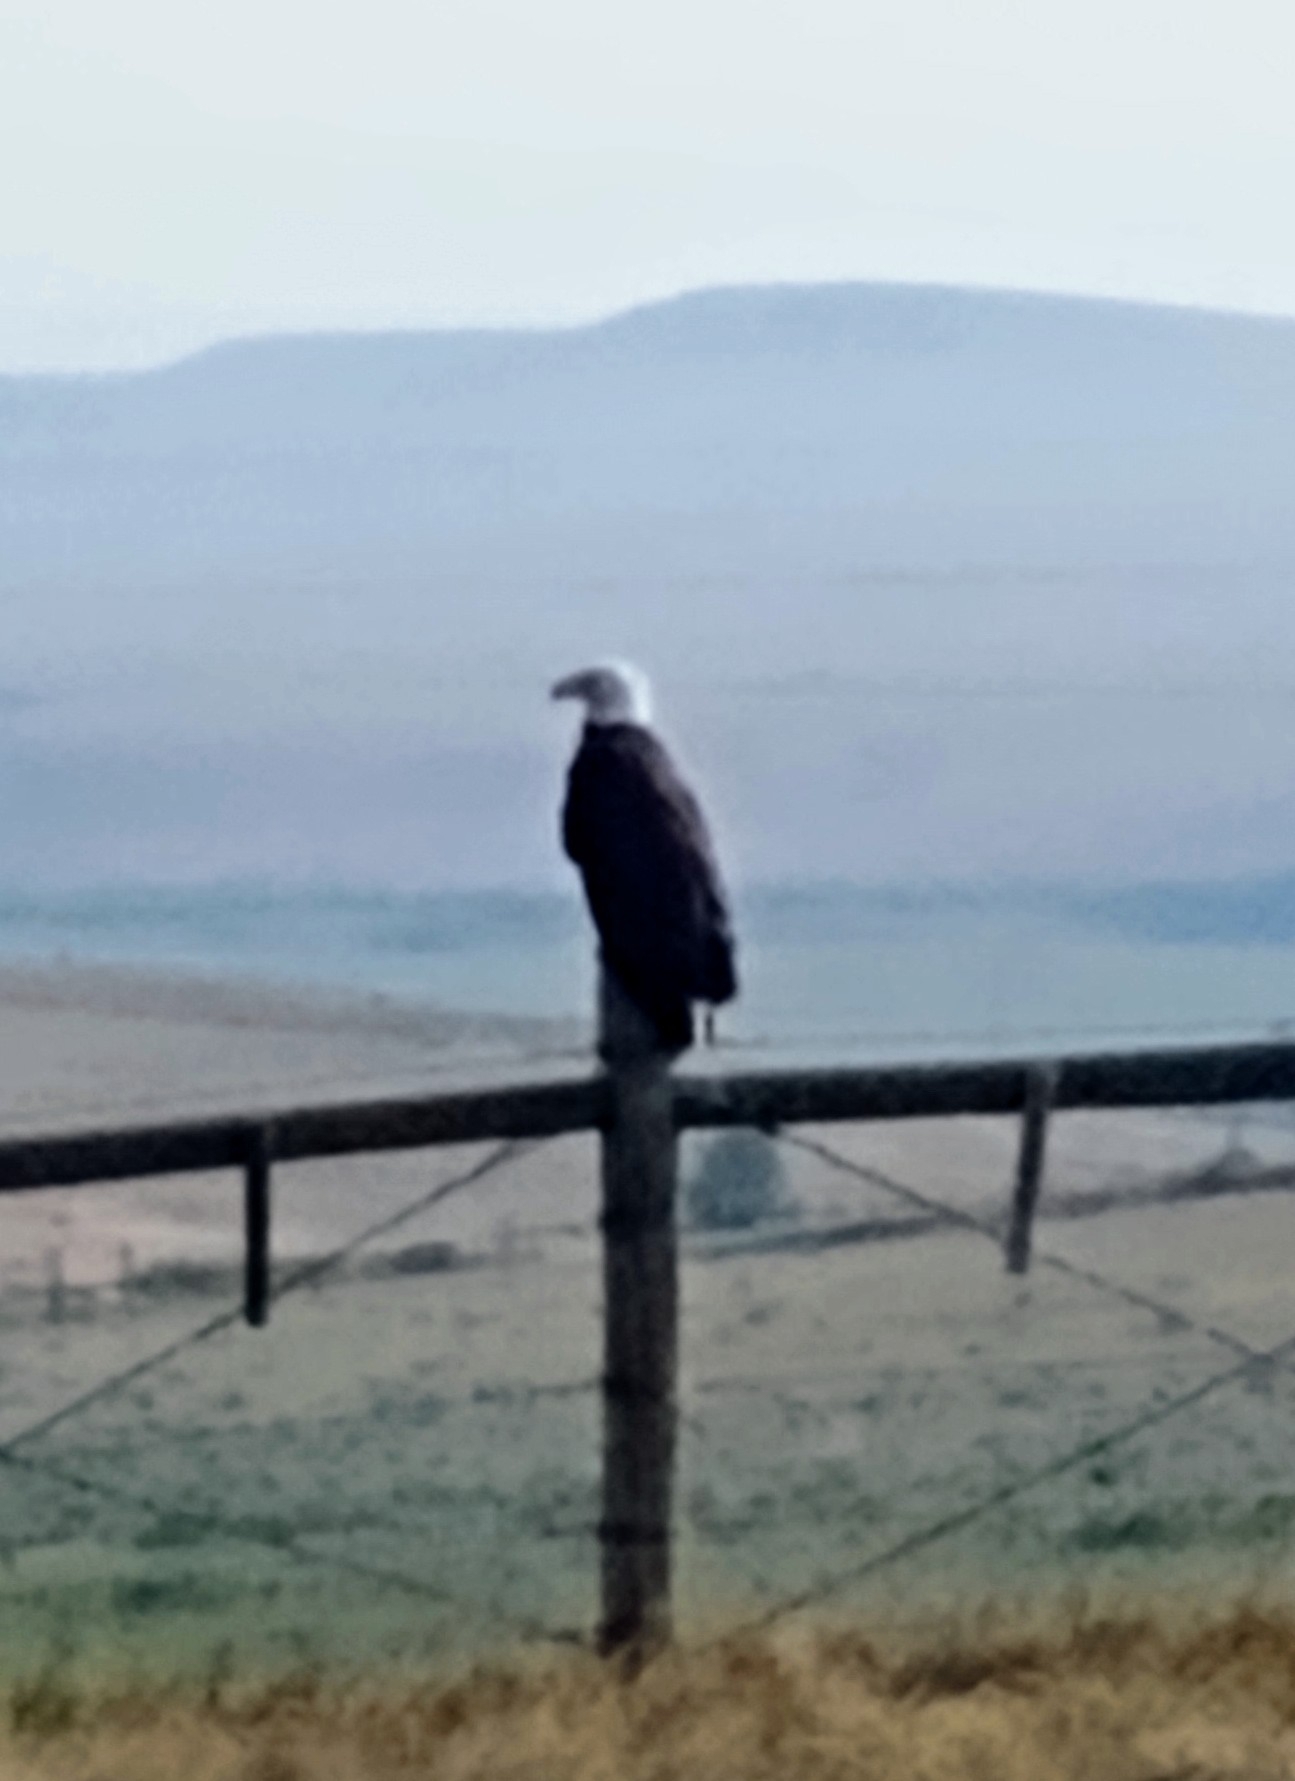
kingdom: Animalia
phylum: Chordata
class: Aves
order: Accipitriformes
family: Accipitridae
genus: Haliaeetus
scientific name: Haliaeetus leucocephalus
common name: Bald eagle
